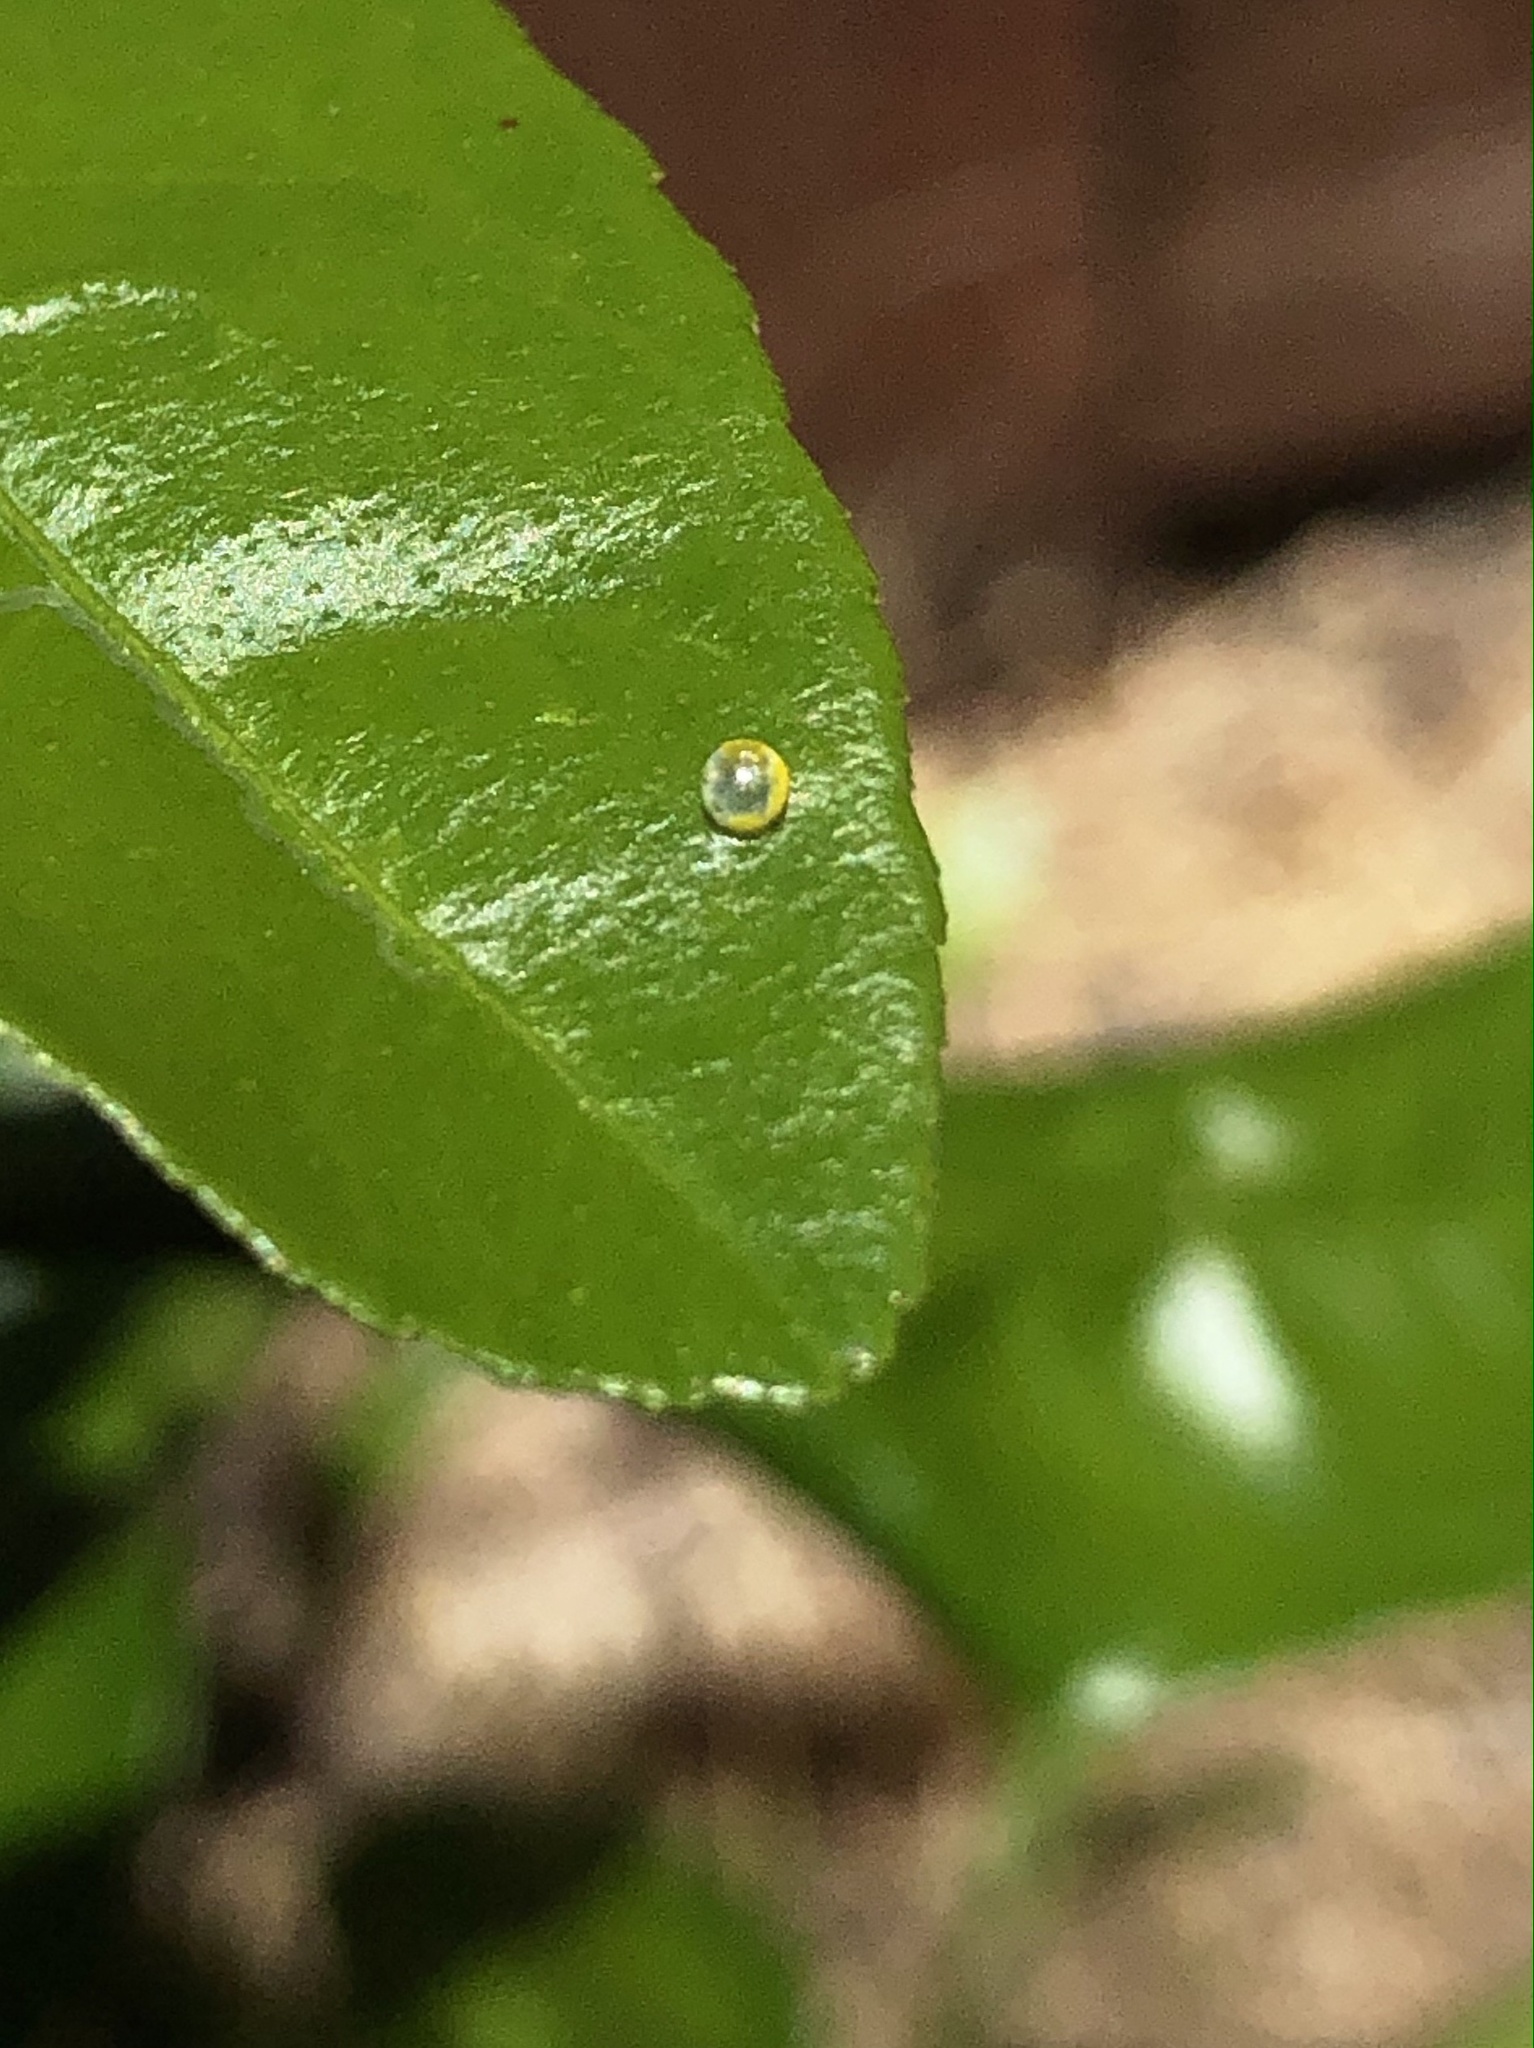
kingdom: Animalia
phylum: Arthropoda
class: Insecta
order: Lepidoptera
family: Papilionidae
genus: Papilio
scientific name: Papilio rumiko
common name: Western giant swallowtail
